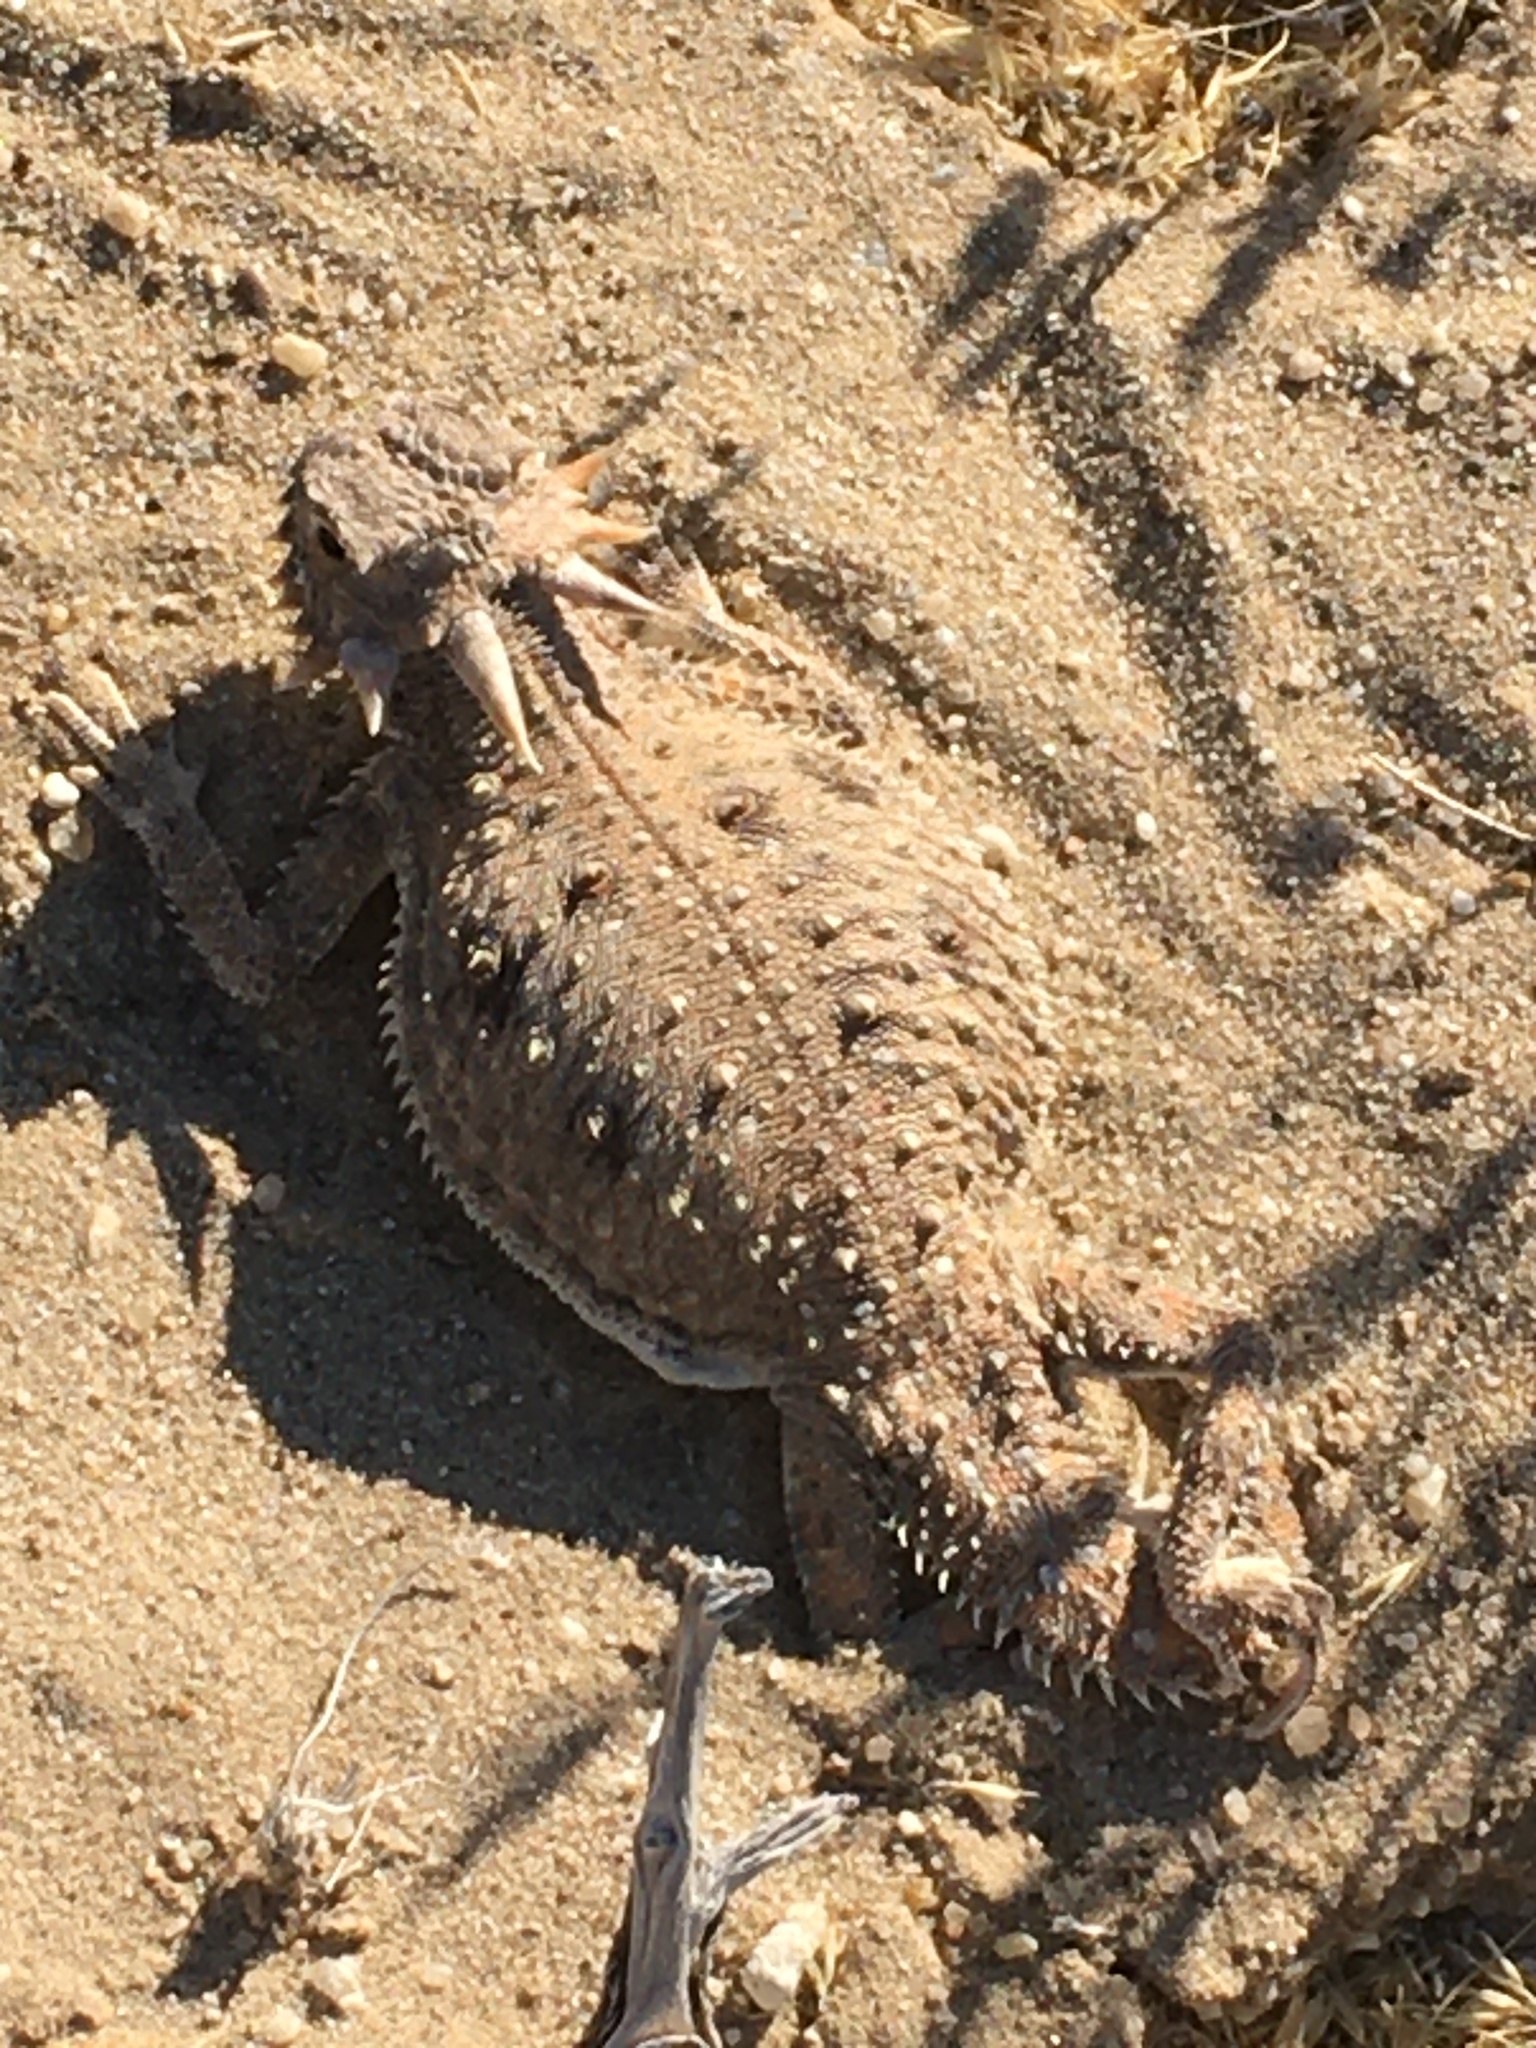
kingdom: Animalia
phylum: Chordata
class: Squamata
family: Phrynosomatidae
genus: Phrynosoma
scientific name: Phrynosoma mcallii
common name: Flat-tailed horned lizard
